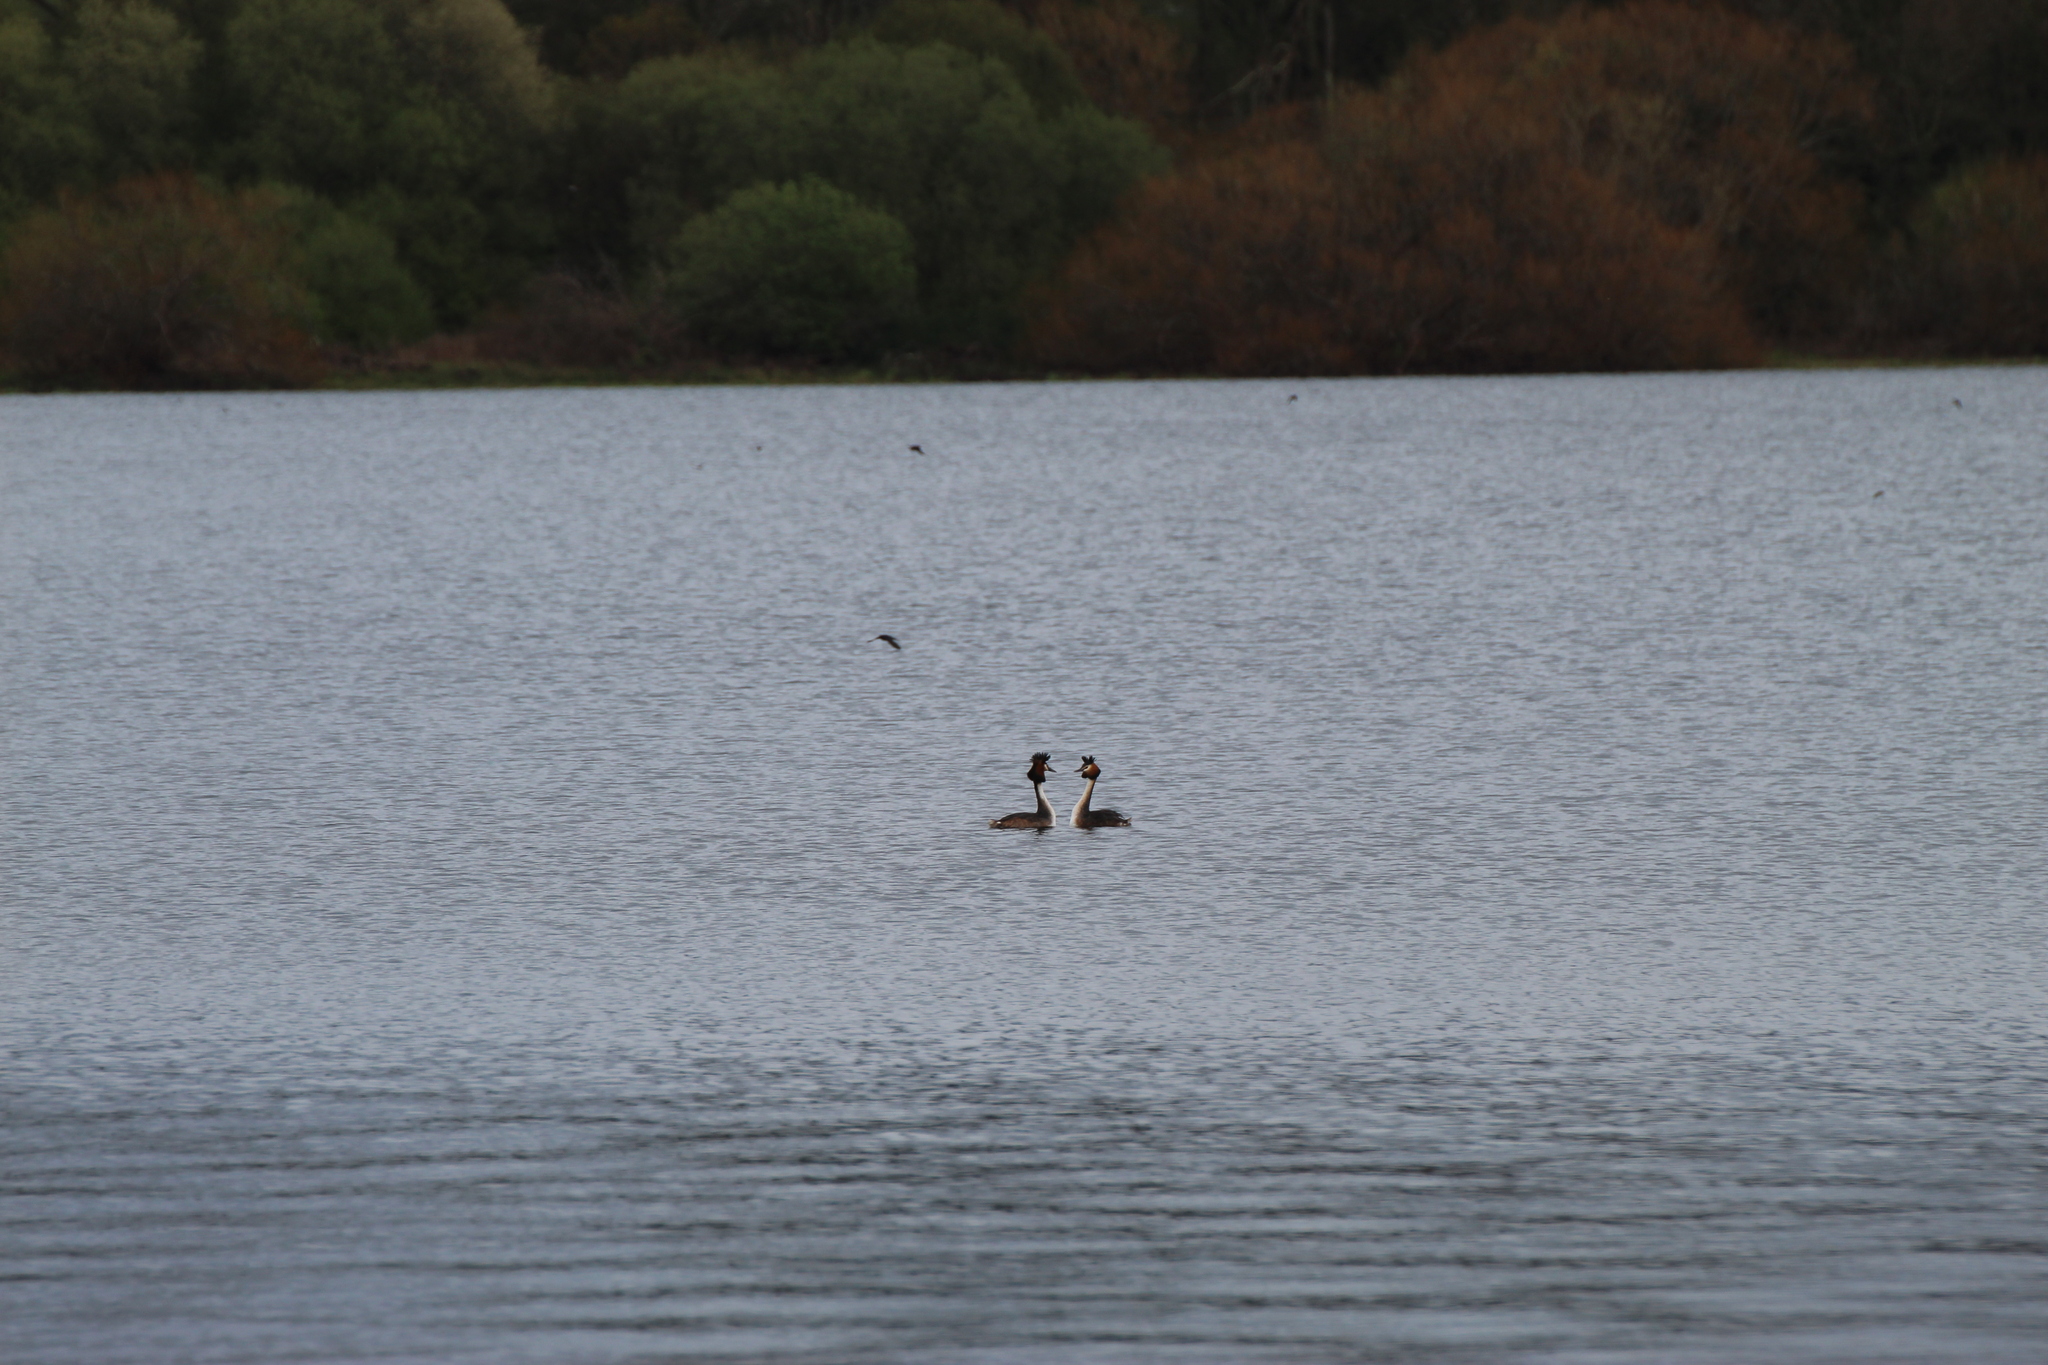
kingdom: Animalia
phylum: Chordata
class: Aves
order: Podicipediformes
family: Podicipedidae
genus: Podiceps
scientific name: Podiceps cristatus
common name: Great crested grebe
